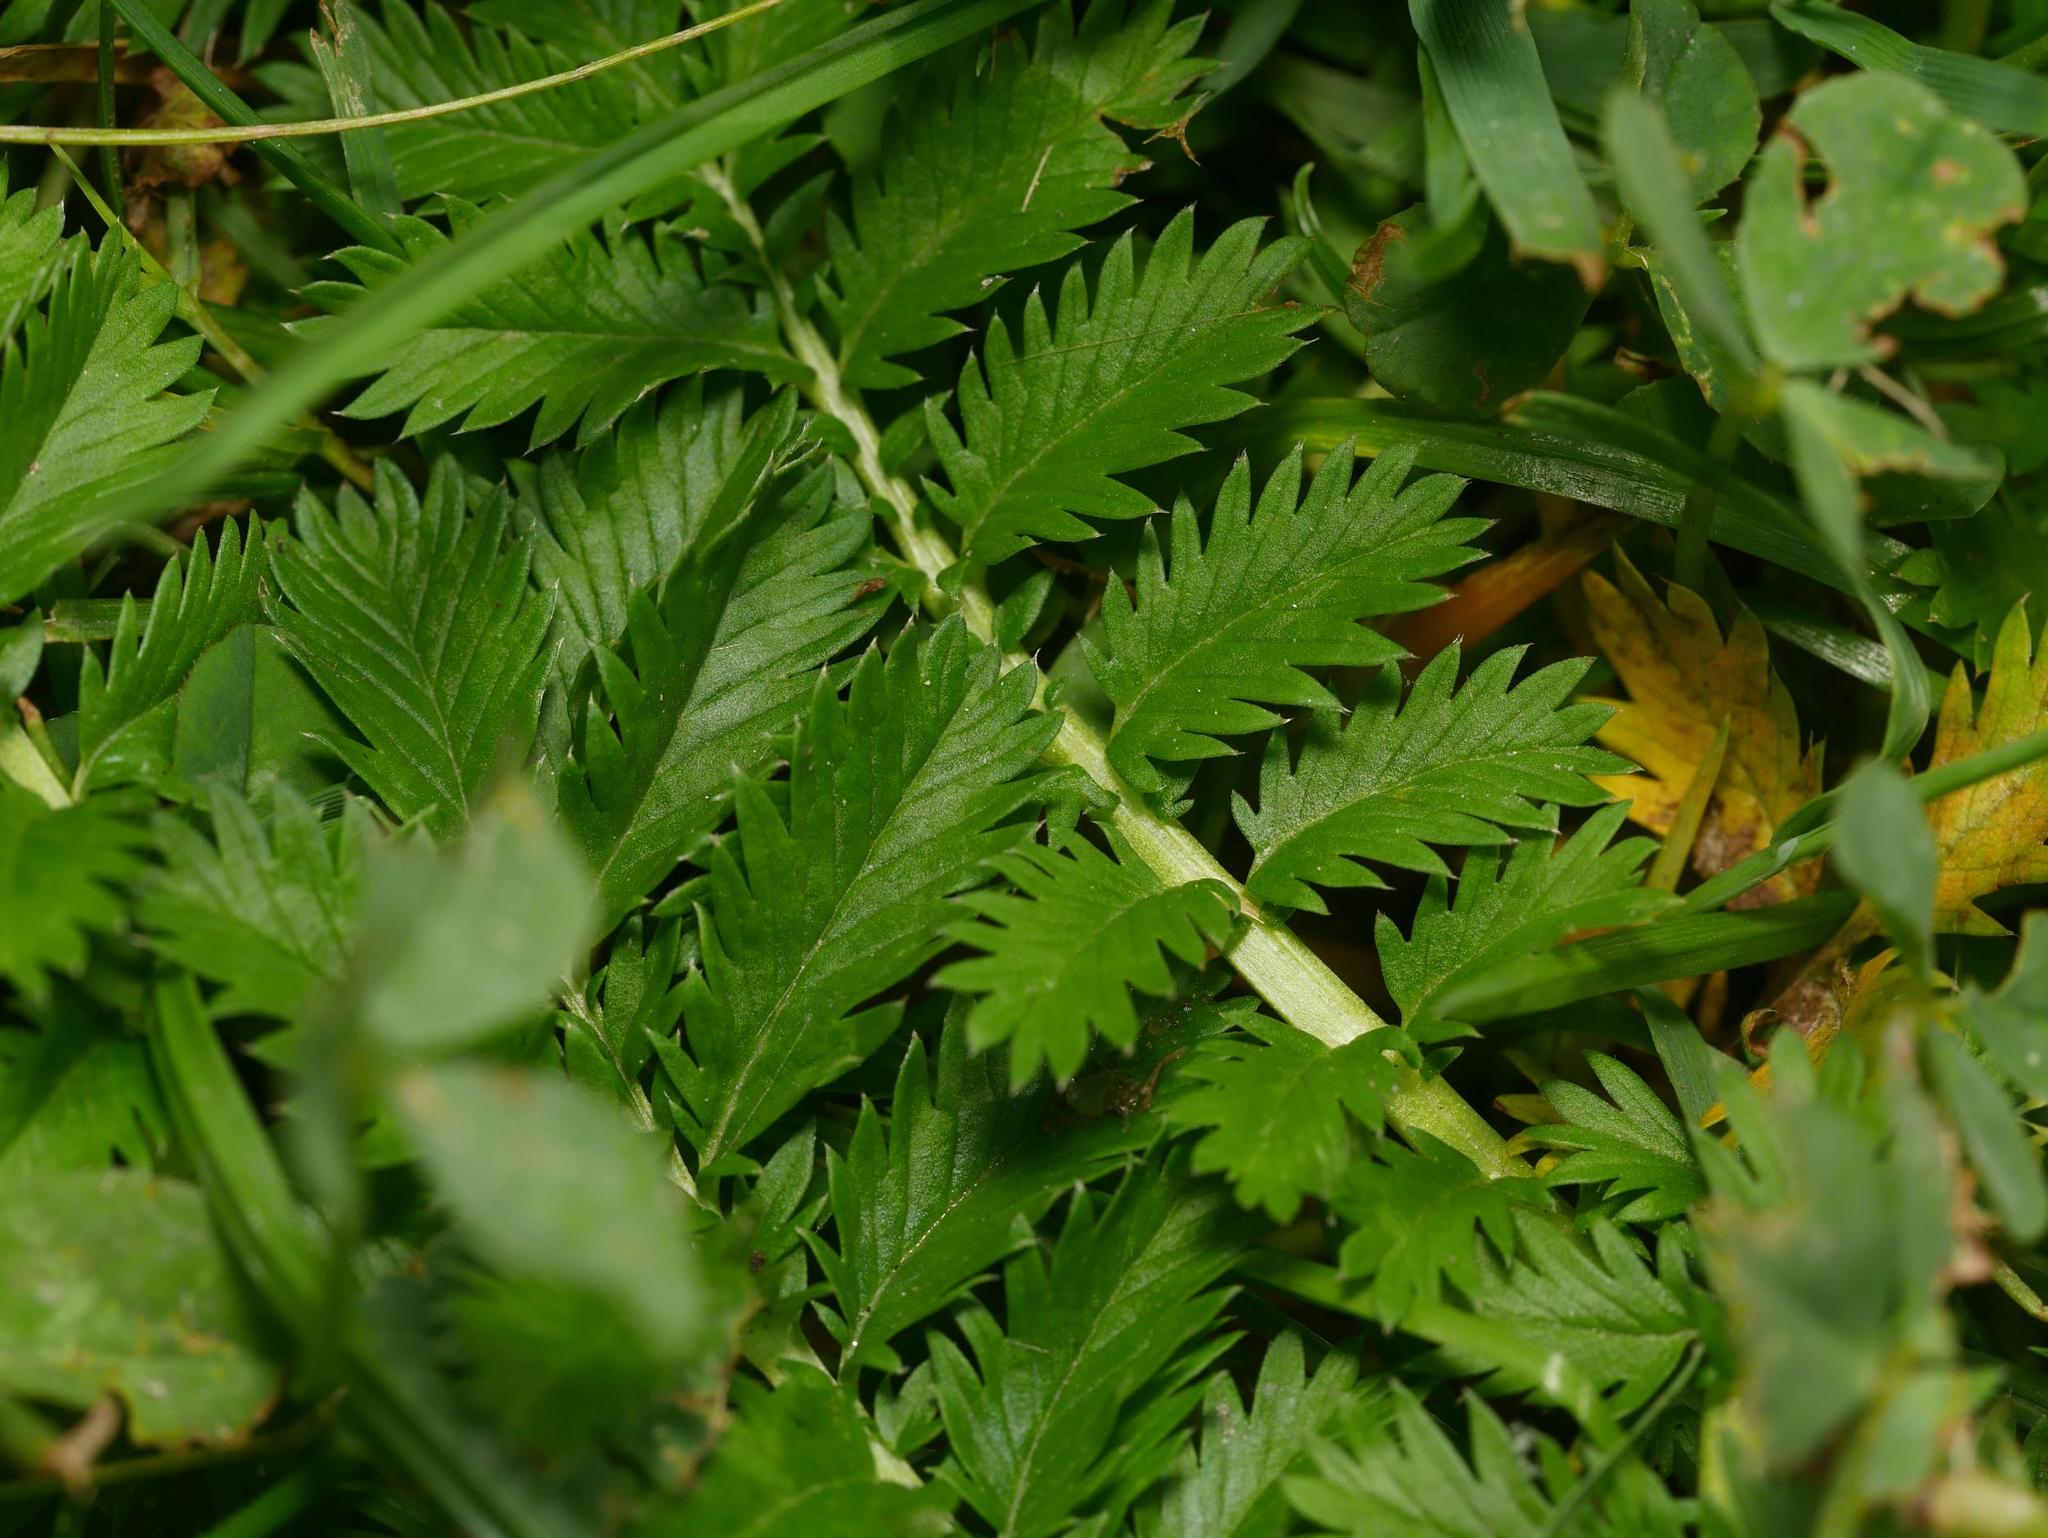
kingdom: Plantae
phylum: Tracheophyta
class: Magnoliopsida
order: Rosales
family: Rosaceae
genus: Argentina
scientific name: Argentina anserina
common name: Common silverweed
